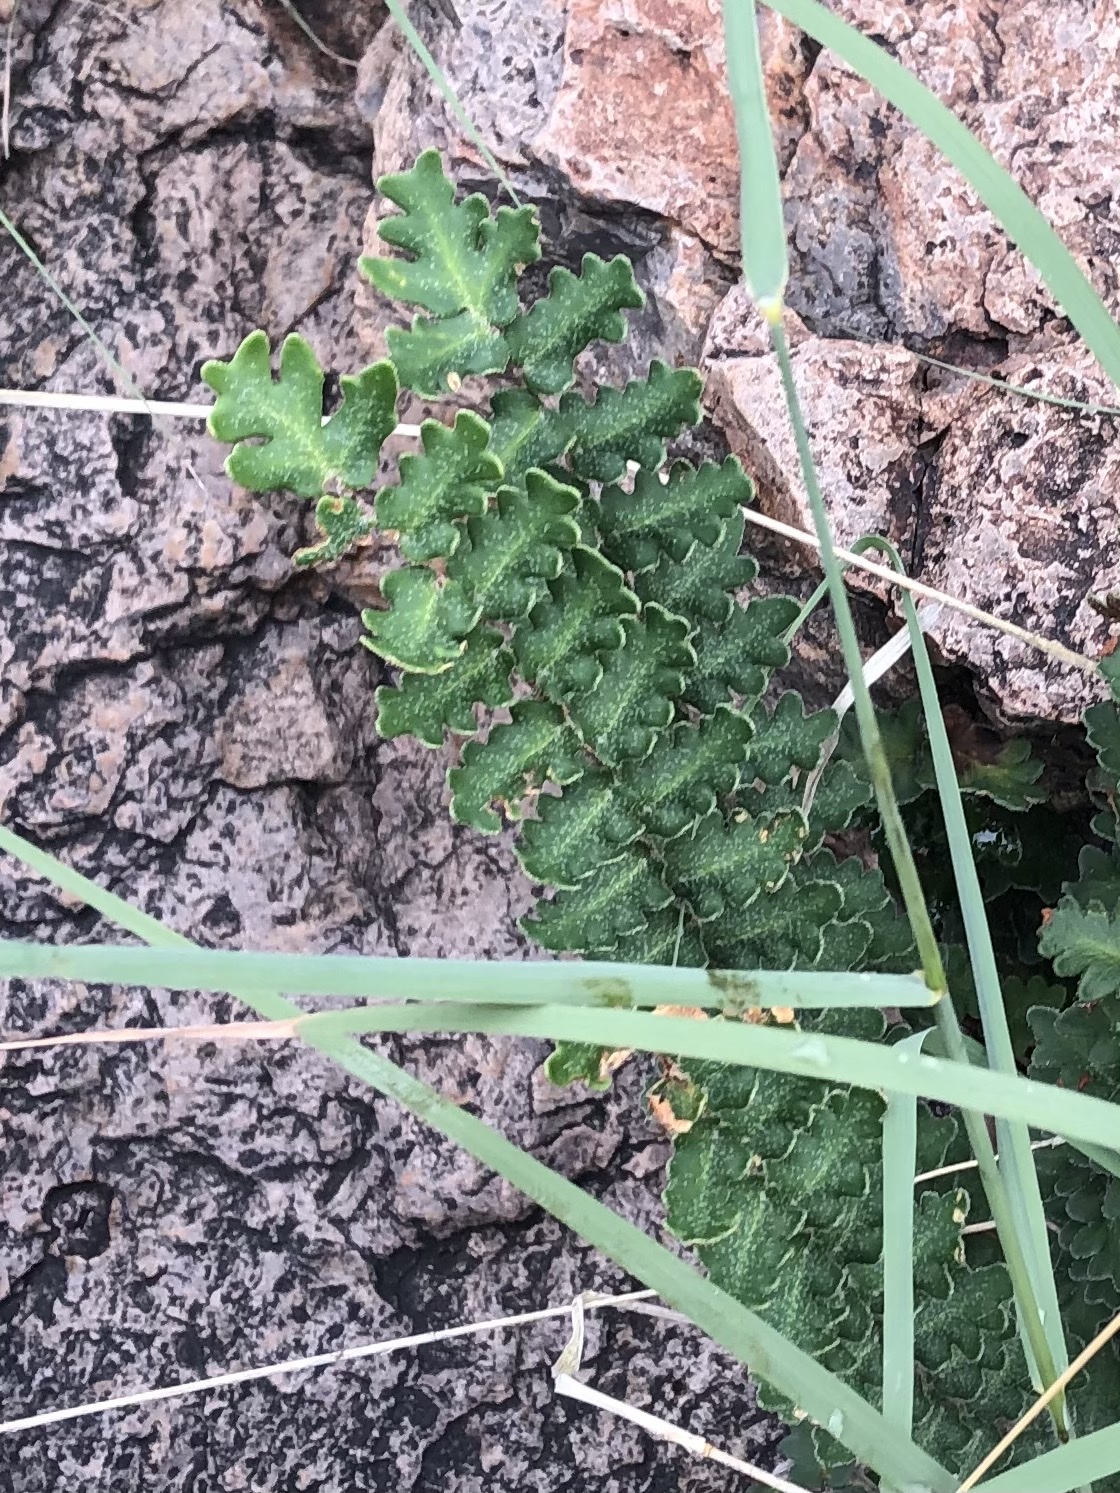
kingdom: Plantae
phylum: Tracheophyta
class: Polypodiopsida
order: Polypodiales
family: Pteridaceae
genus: Astrolepis
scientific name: Astrolepis sinuata
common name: Wavy scaly cloakfern
